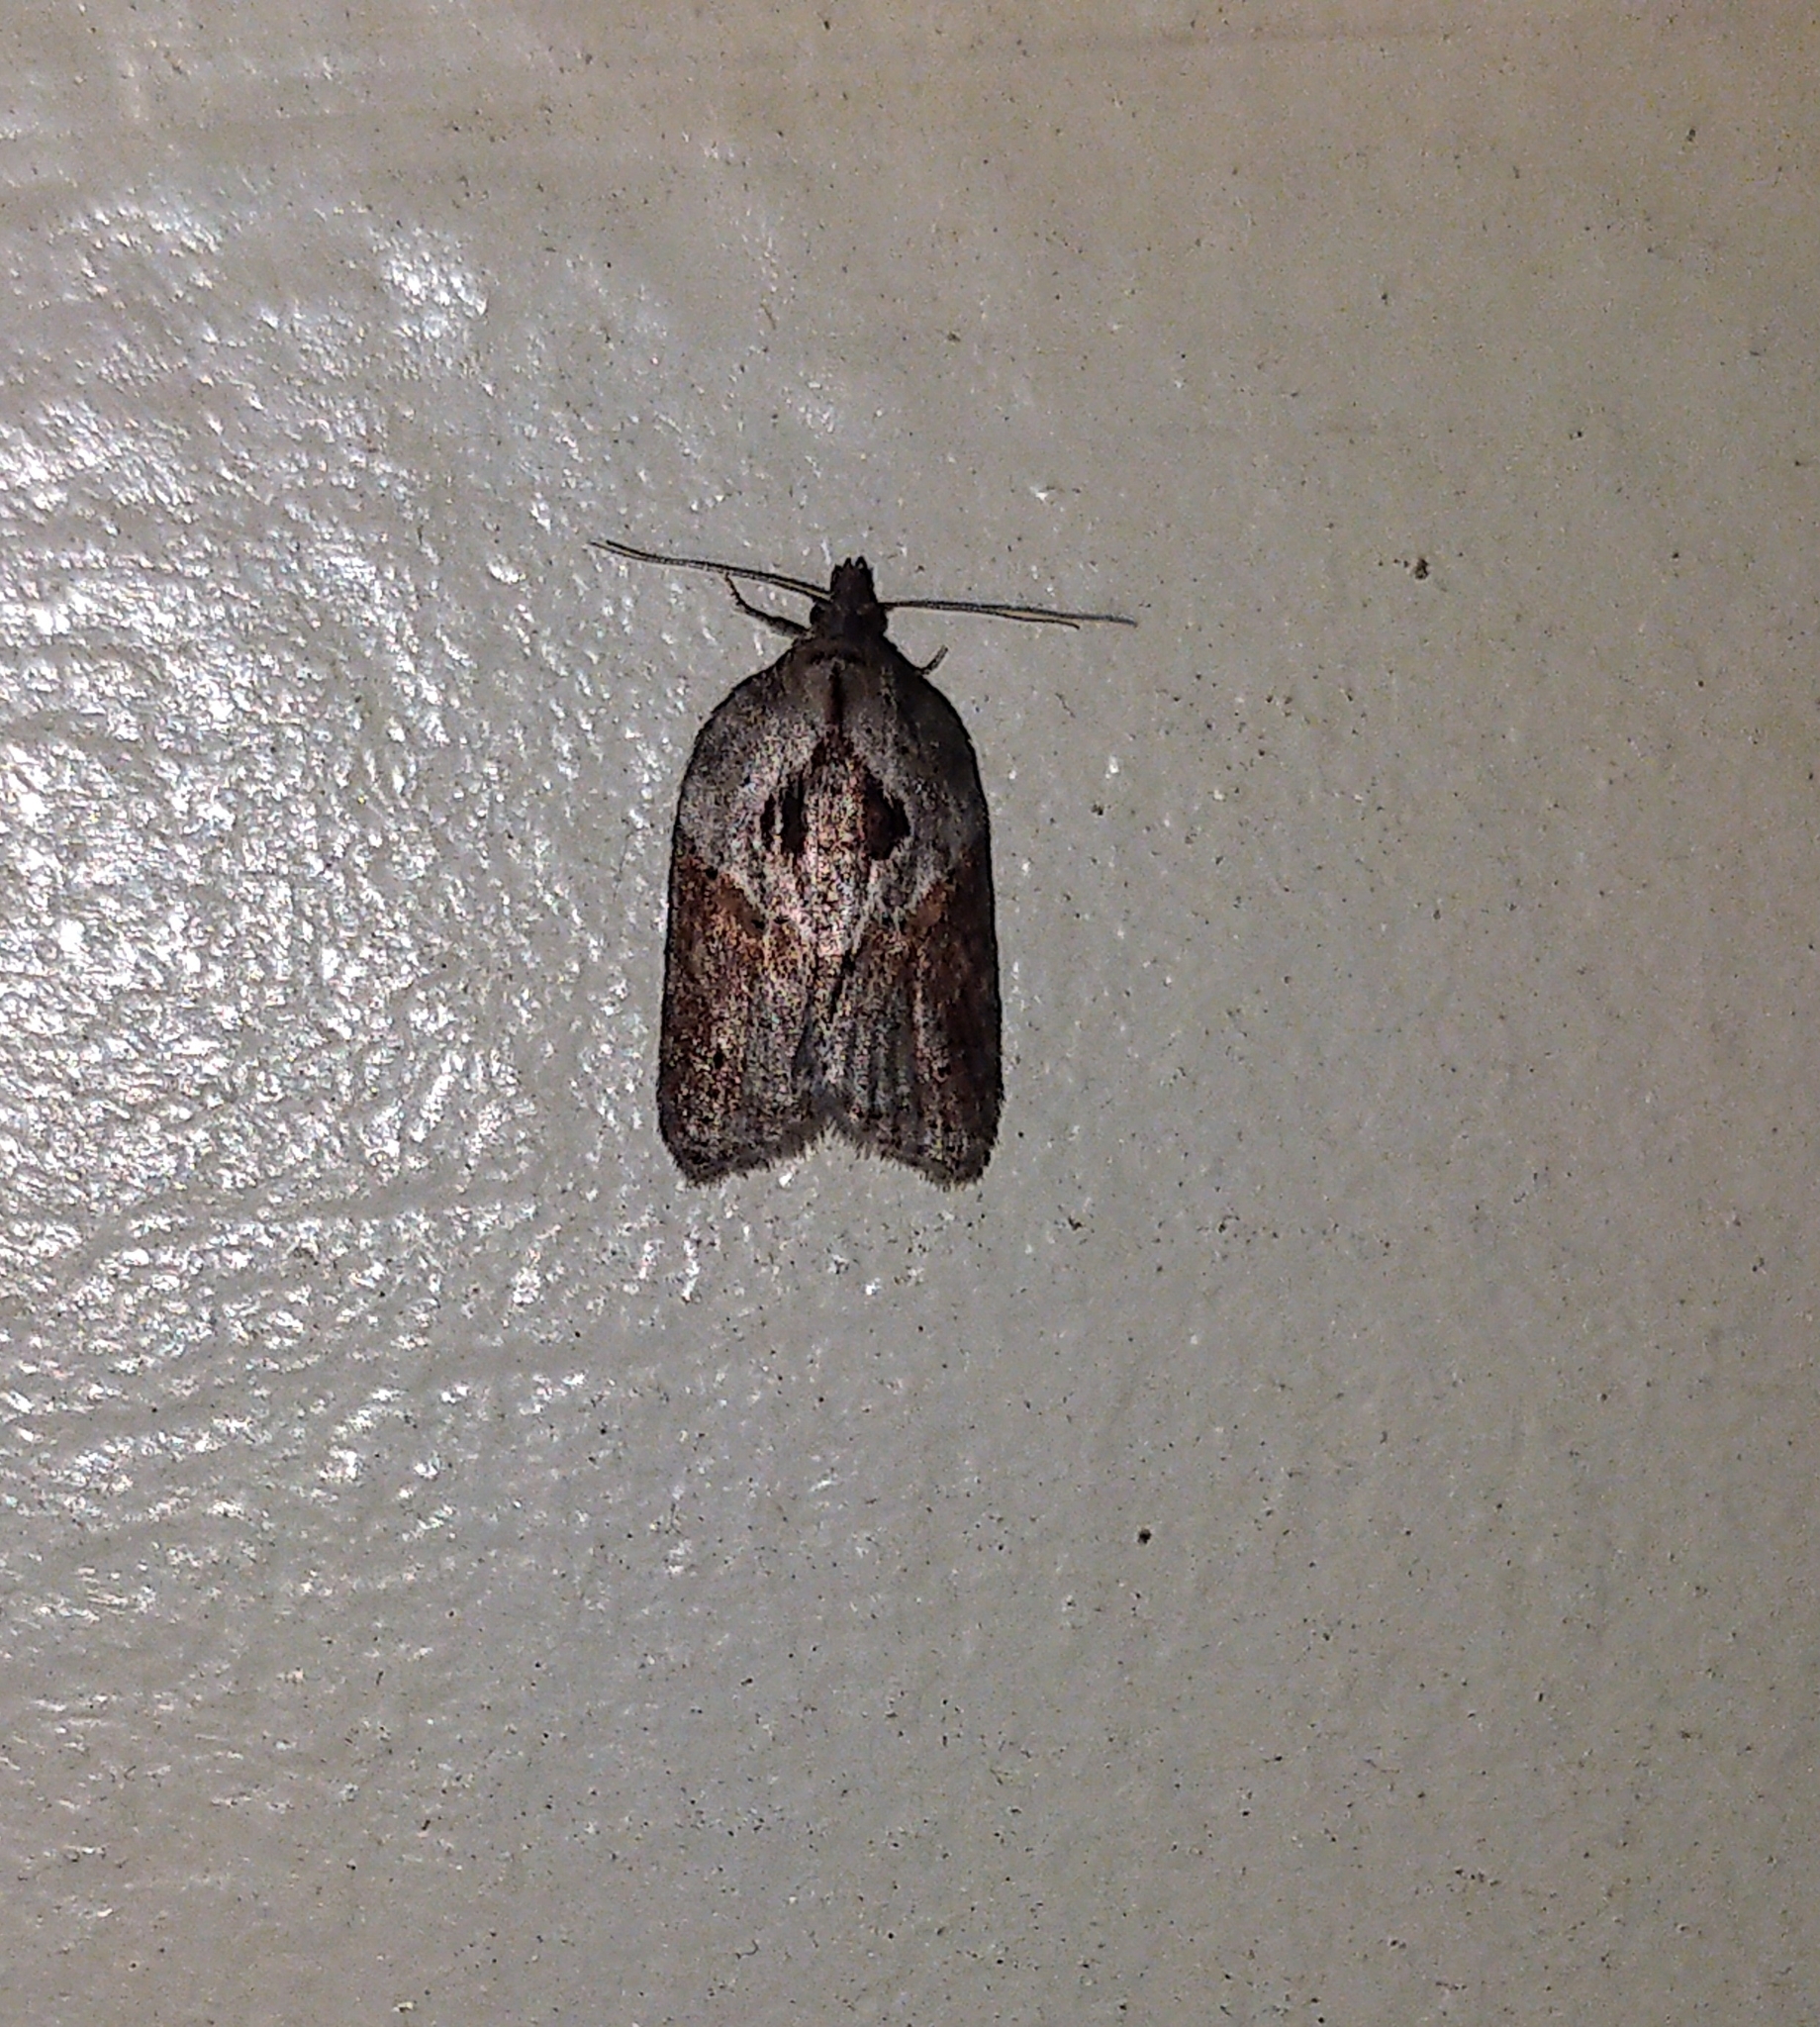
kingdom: Animalia
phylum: Arthropoda
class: Insecta
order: Lepidoptera
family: Tortricidae
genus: Acleris
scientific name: Acleris robinsoniana
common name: Robinson's acleris moth
